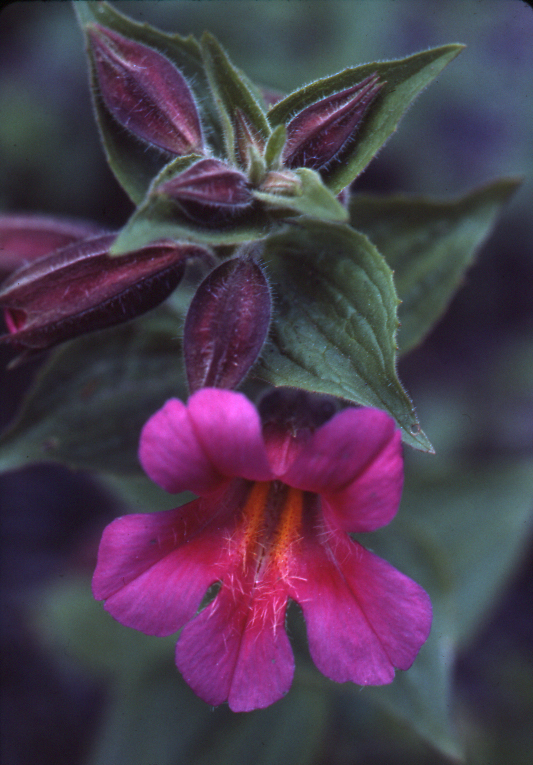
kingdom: Plantae
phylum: Tracheophyta
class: Magnoliopsida
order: Lamiales
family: Phrymaceae
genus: Erythranthe
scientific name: Erythranthe lewisii
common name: Lewis's monkey-flower
